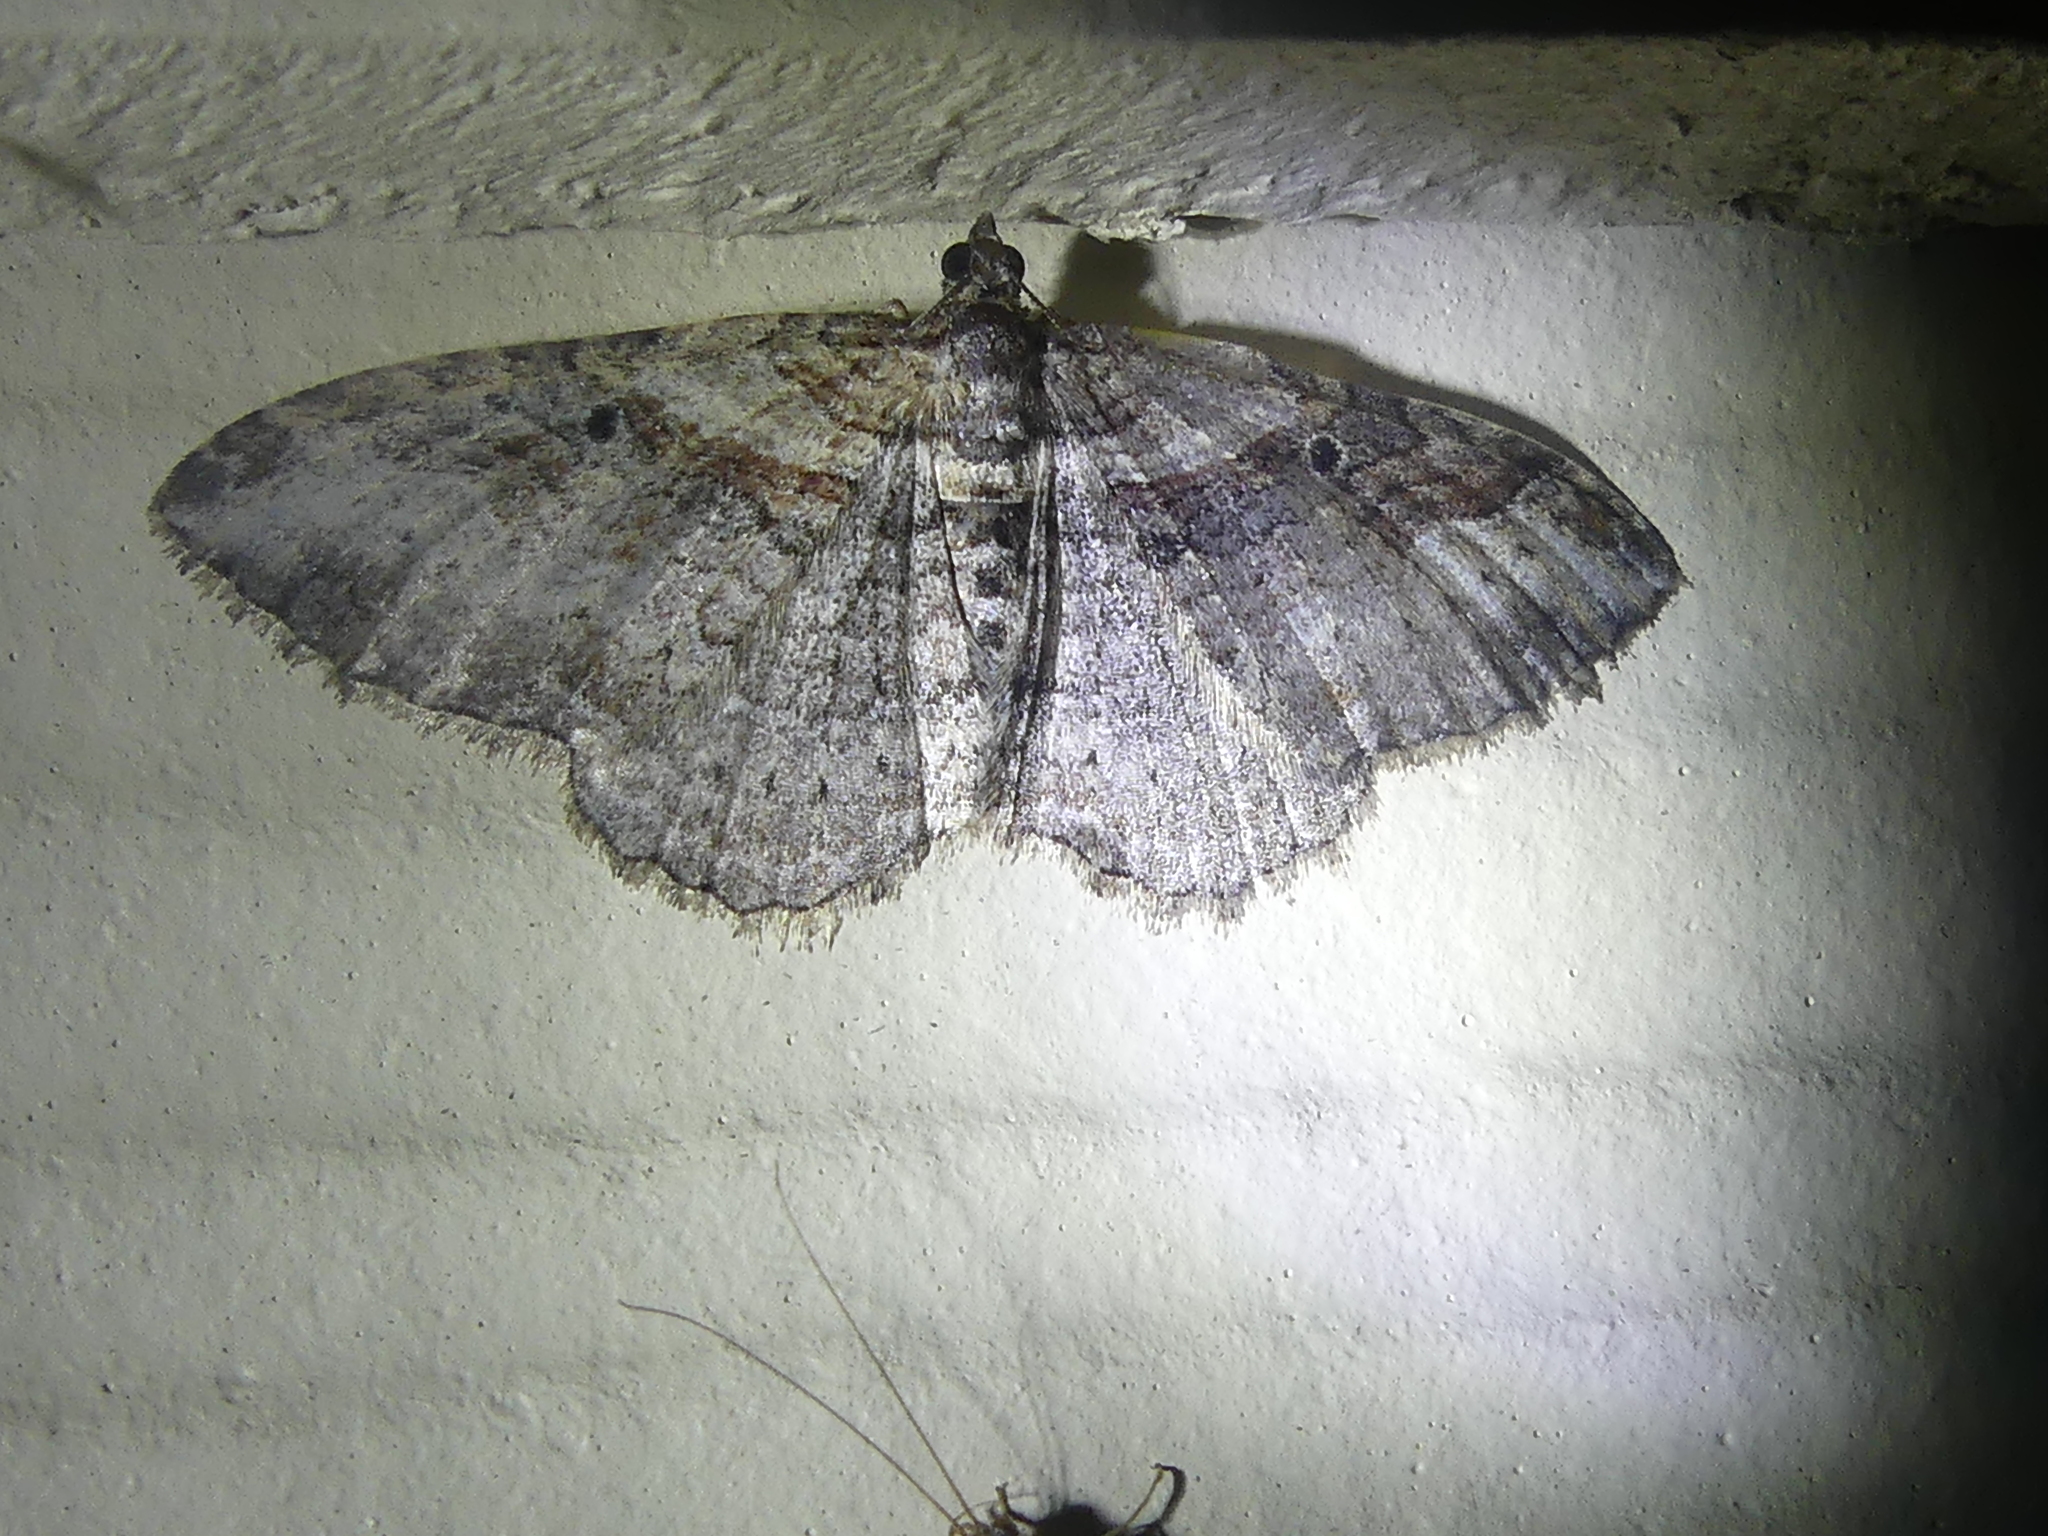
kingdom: Animalia
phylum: Arthropoda
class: Insecta
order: Lepidoptera
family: Geometridae
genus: Costaconvexa
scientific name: Costaconvexa centrostrigaria
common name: Bent-line carpet
